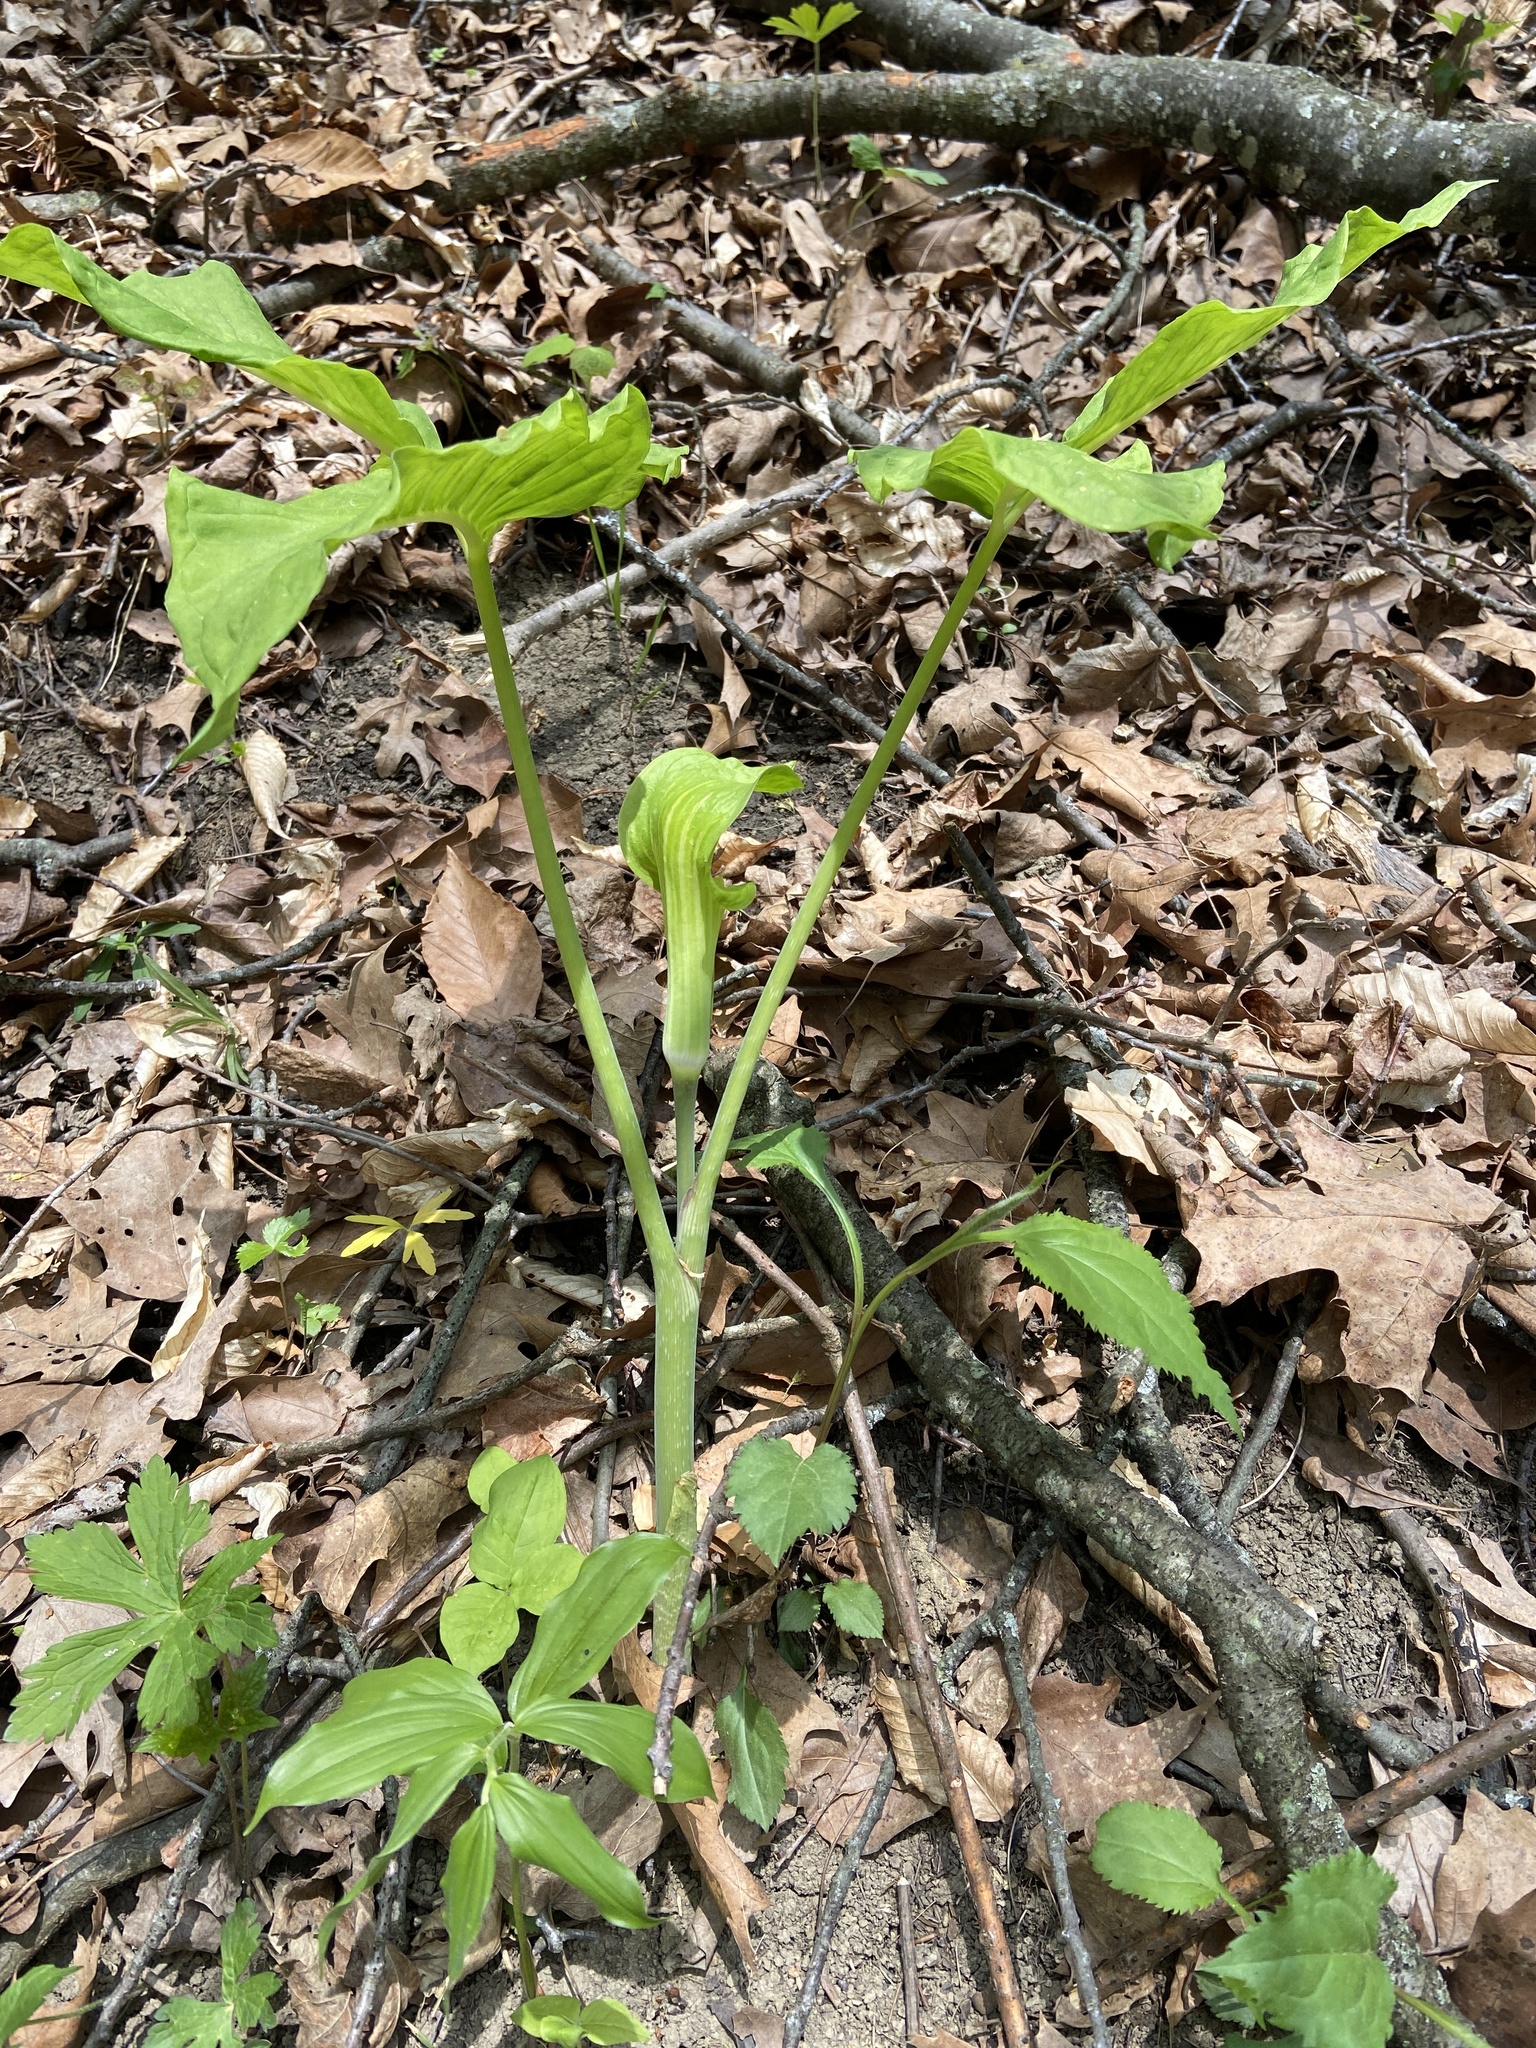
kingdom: Plantae
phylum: Tracheophyta
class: Liliopsida
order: Alismatales
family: Araceae
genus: Arisaema
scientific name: Arisaema triphyllum
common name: Jack-in-the-pulpit
